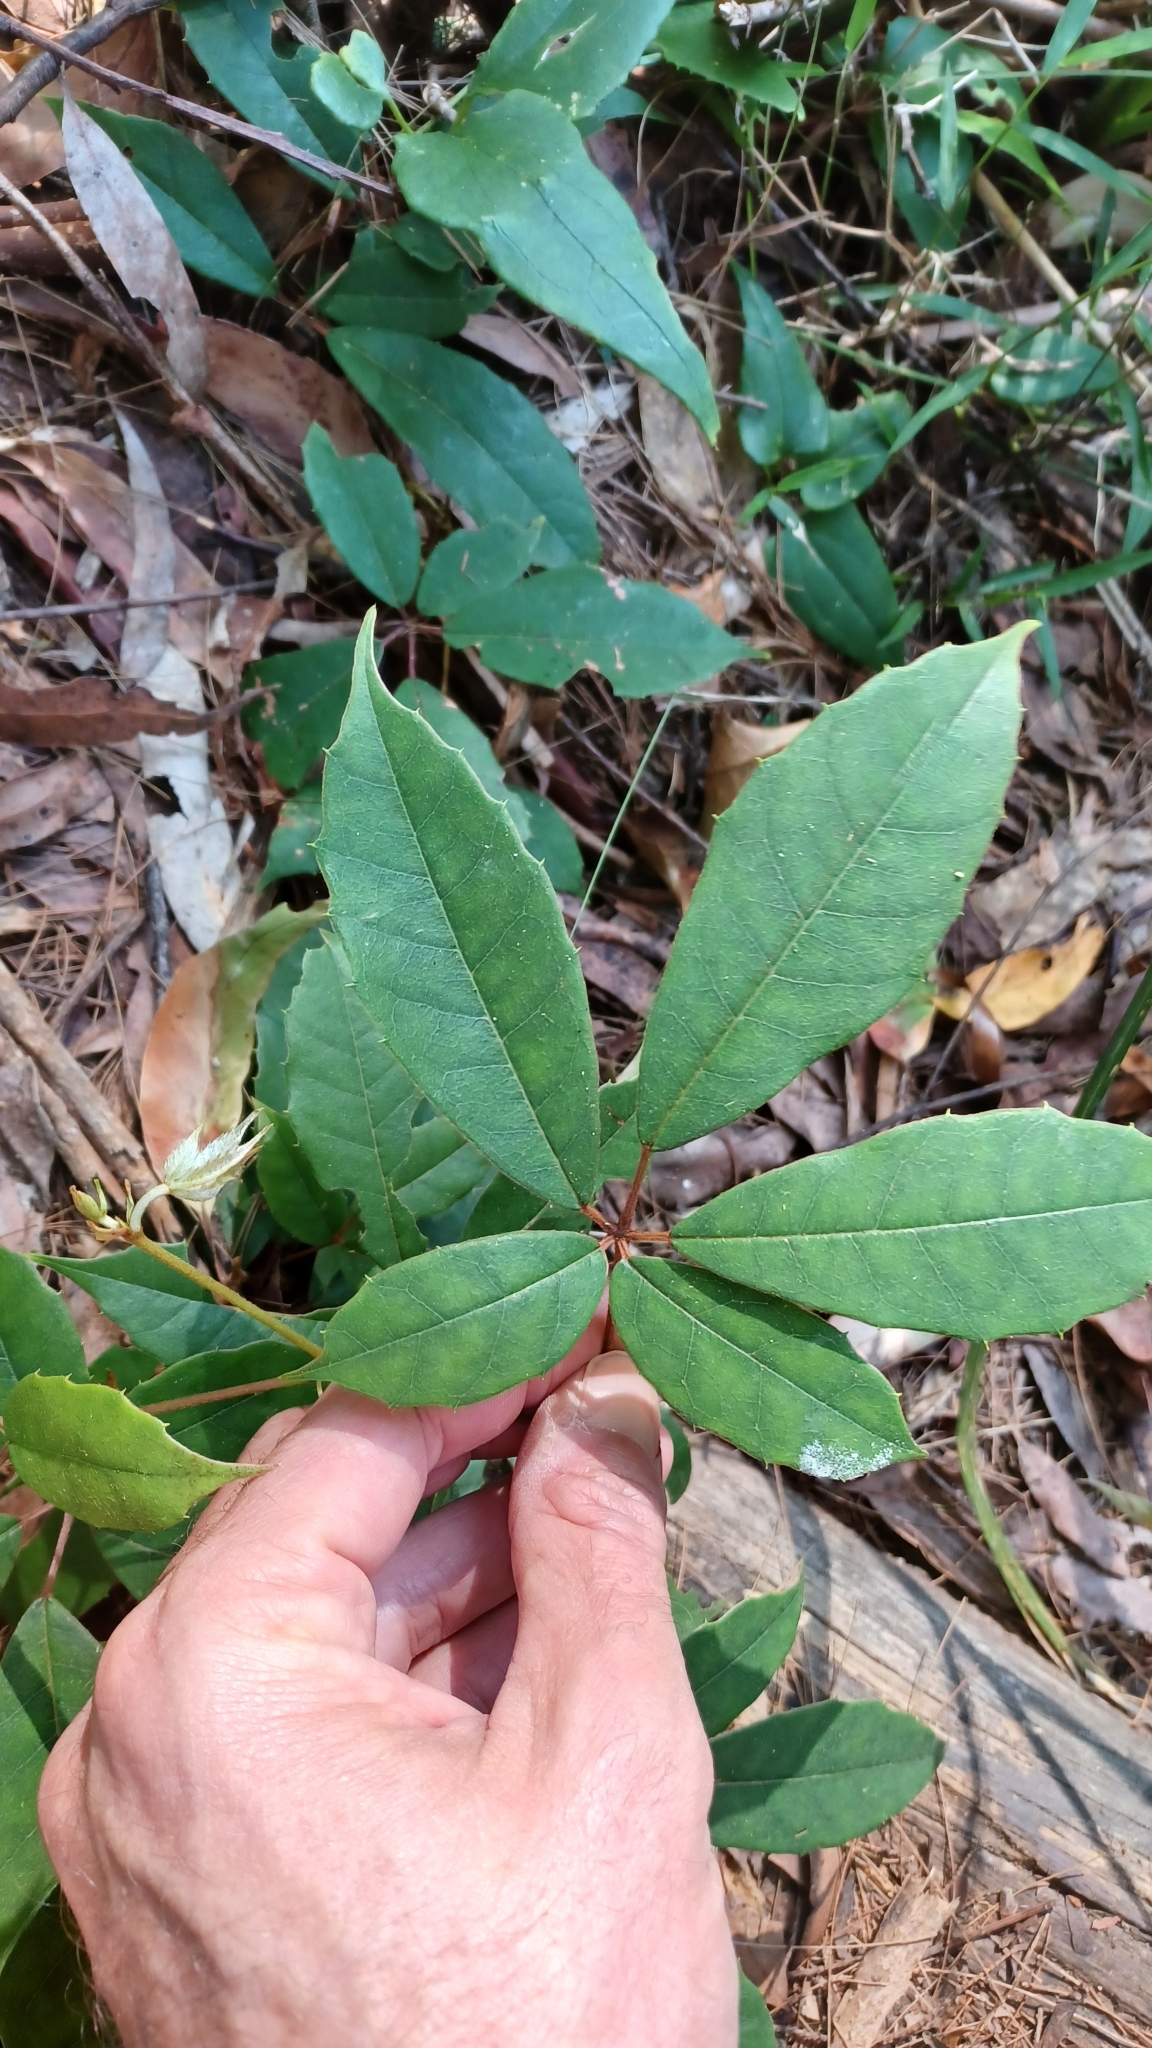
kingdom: Plantae
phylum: Tracheophyta
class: Magnoliopsida
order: Vitales
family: Vitaceae
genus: Nothocissus
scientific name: Nothocissus hypoglauca
